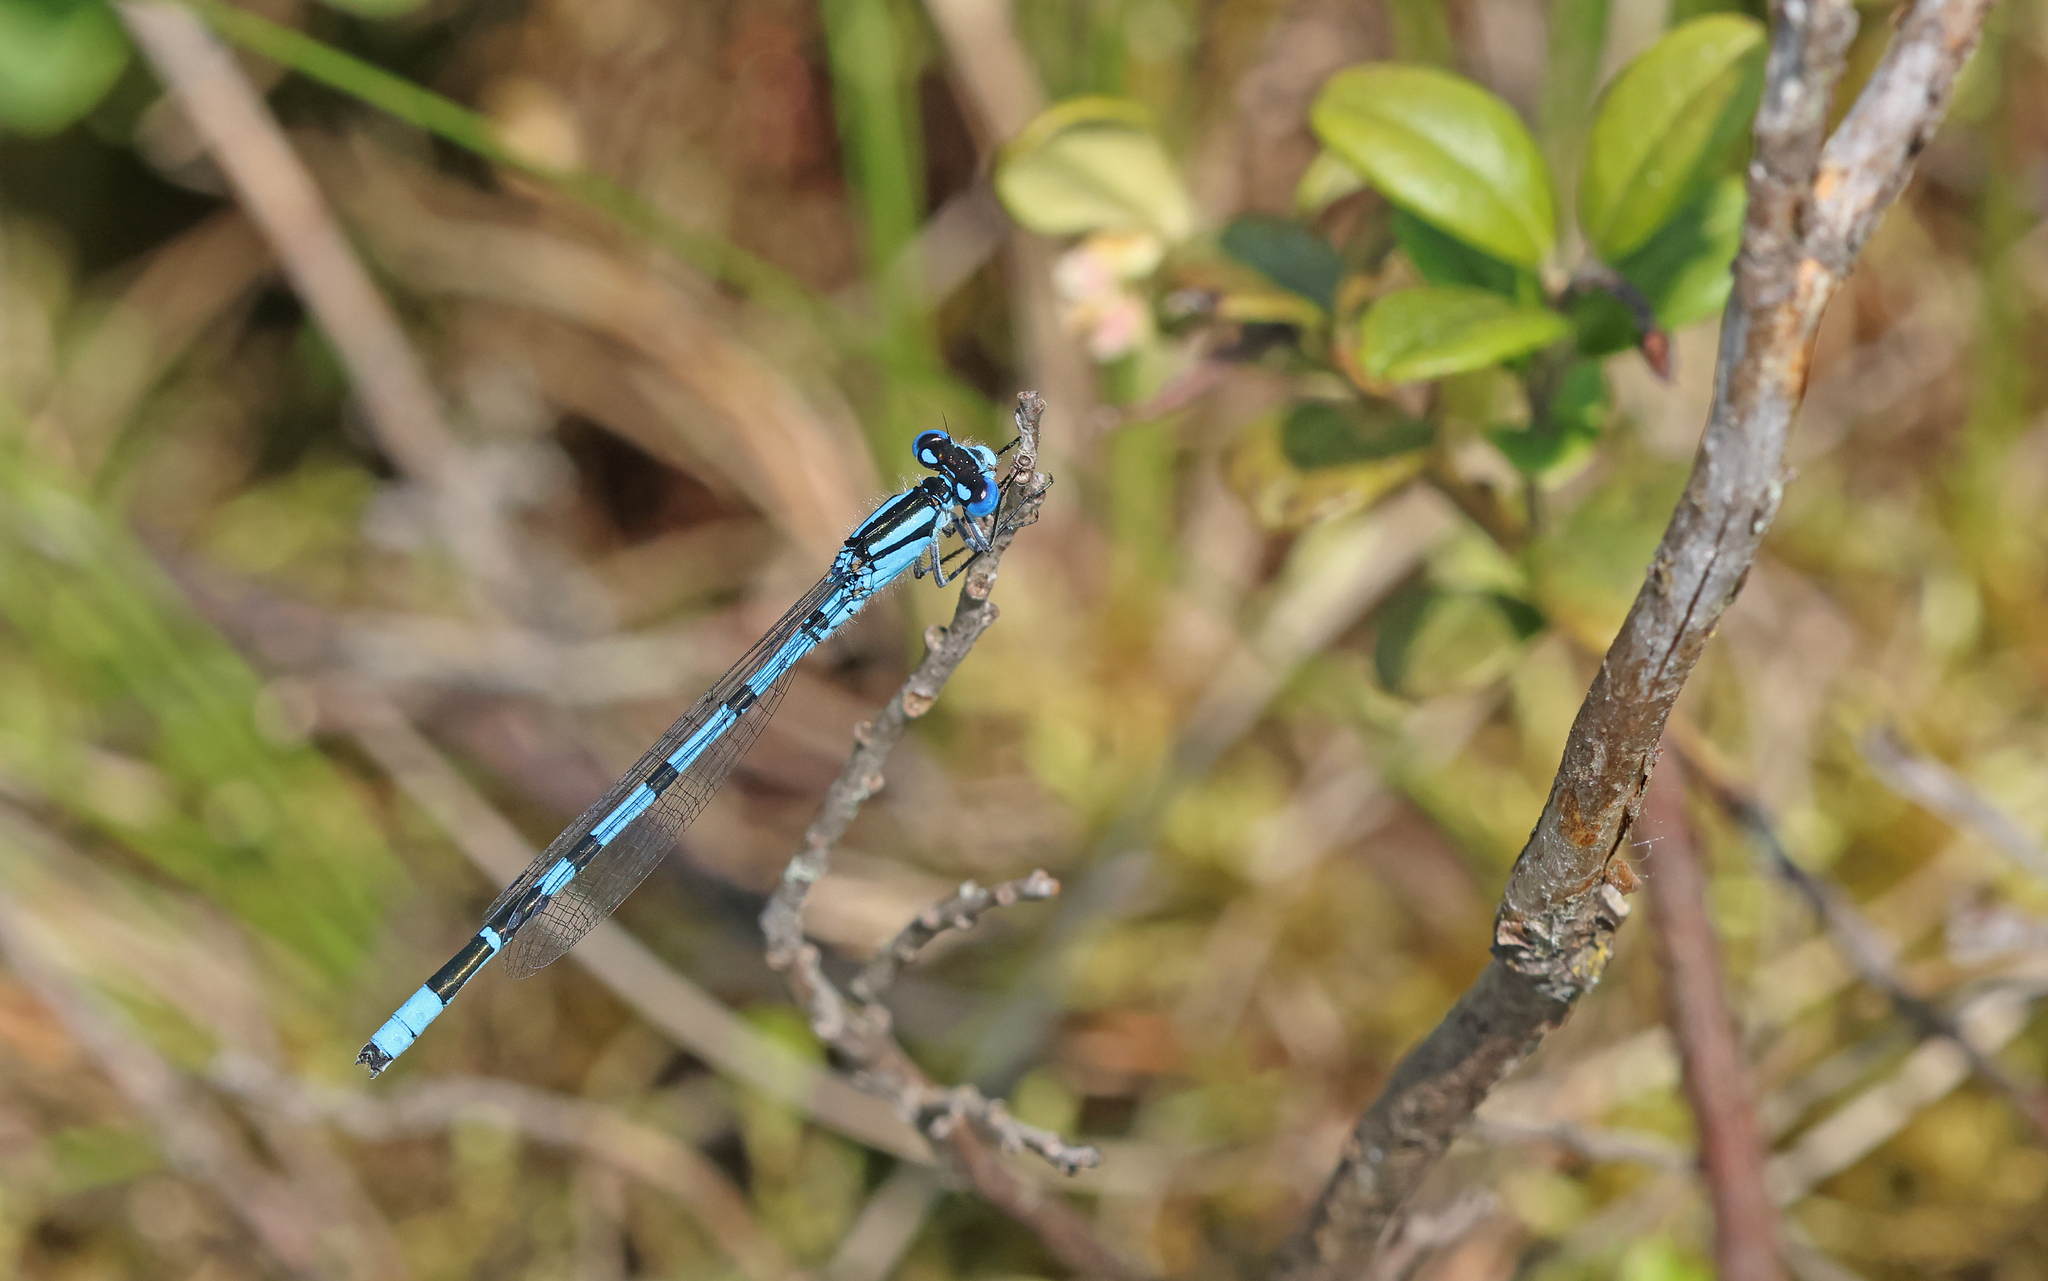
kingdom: Animalia
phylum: Arthropoda
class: Insecta
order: Odonata
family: Coenagrionidae
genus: Enallagma
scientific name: Enallagma cyathigerum
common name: Common blue damselfly
